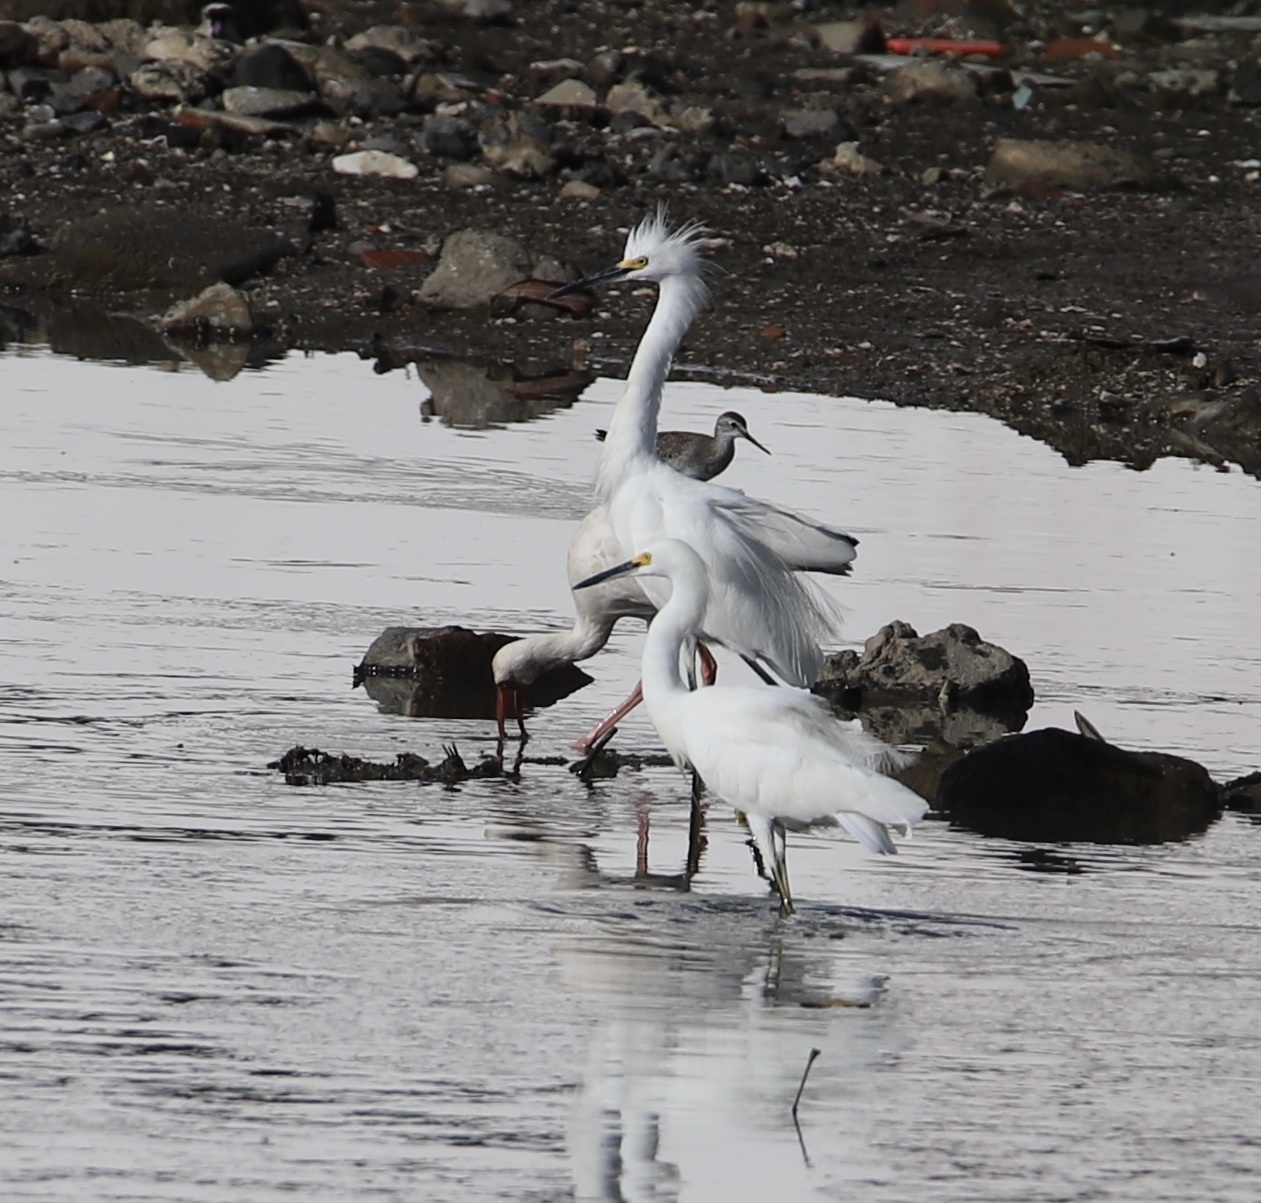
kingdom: Animalia
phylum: Chordata
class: Aves
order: Pelecaniformes
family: Ardeidae
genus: Egretta
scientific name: Egretta thula
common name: Snowy egret
